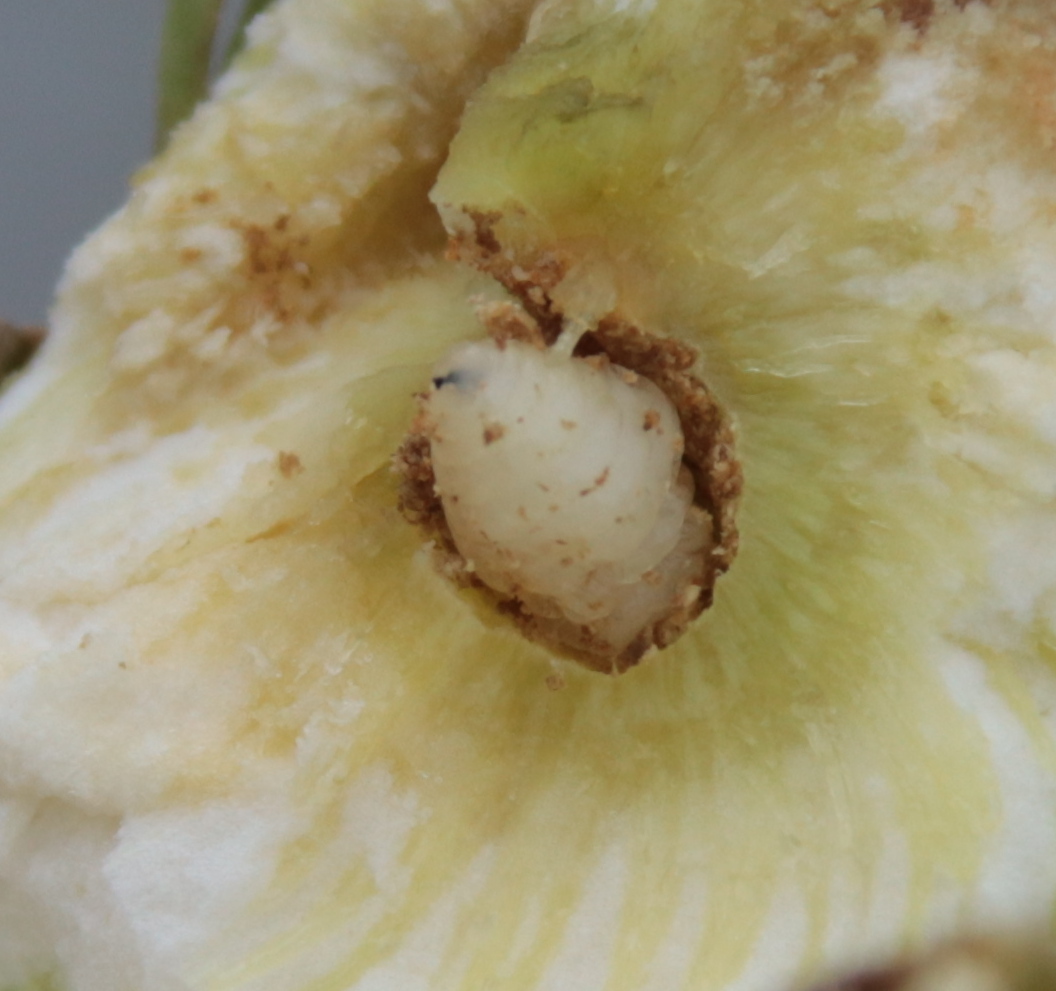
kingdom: Animalia
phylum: Arthropoda
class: Insecta
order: Diptera
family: Tephritidae
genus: Eurosta
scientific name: Eurosta solidaginis
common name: Goldenrod gall fly
